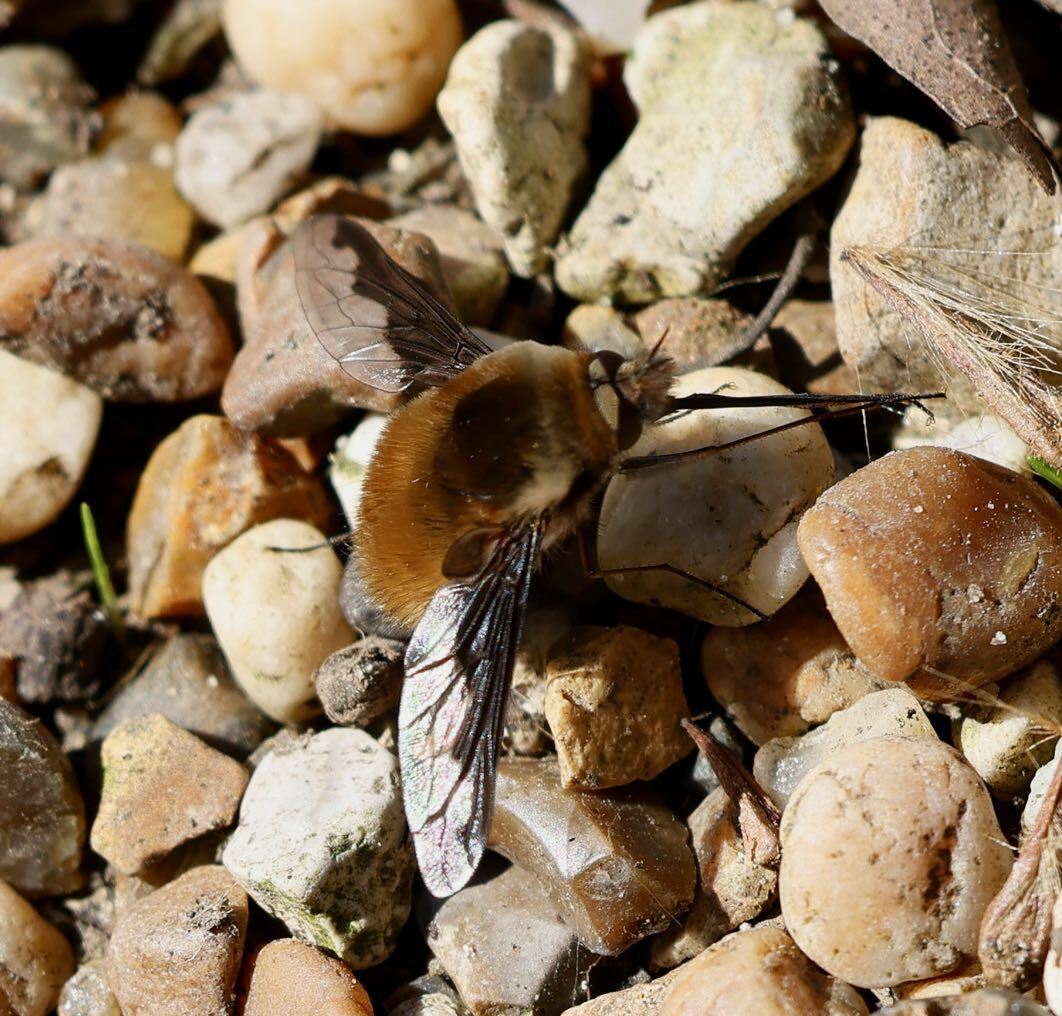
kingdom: Animalia
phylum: Arthropoda
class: Insecta
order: Diptera
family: Bombyliidae
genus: Bombylius
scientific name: Bombylius major
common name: Bee fly
